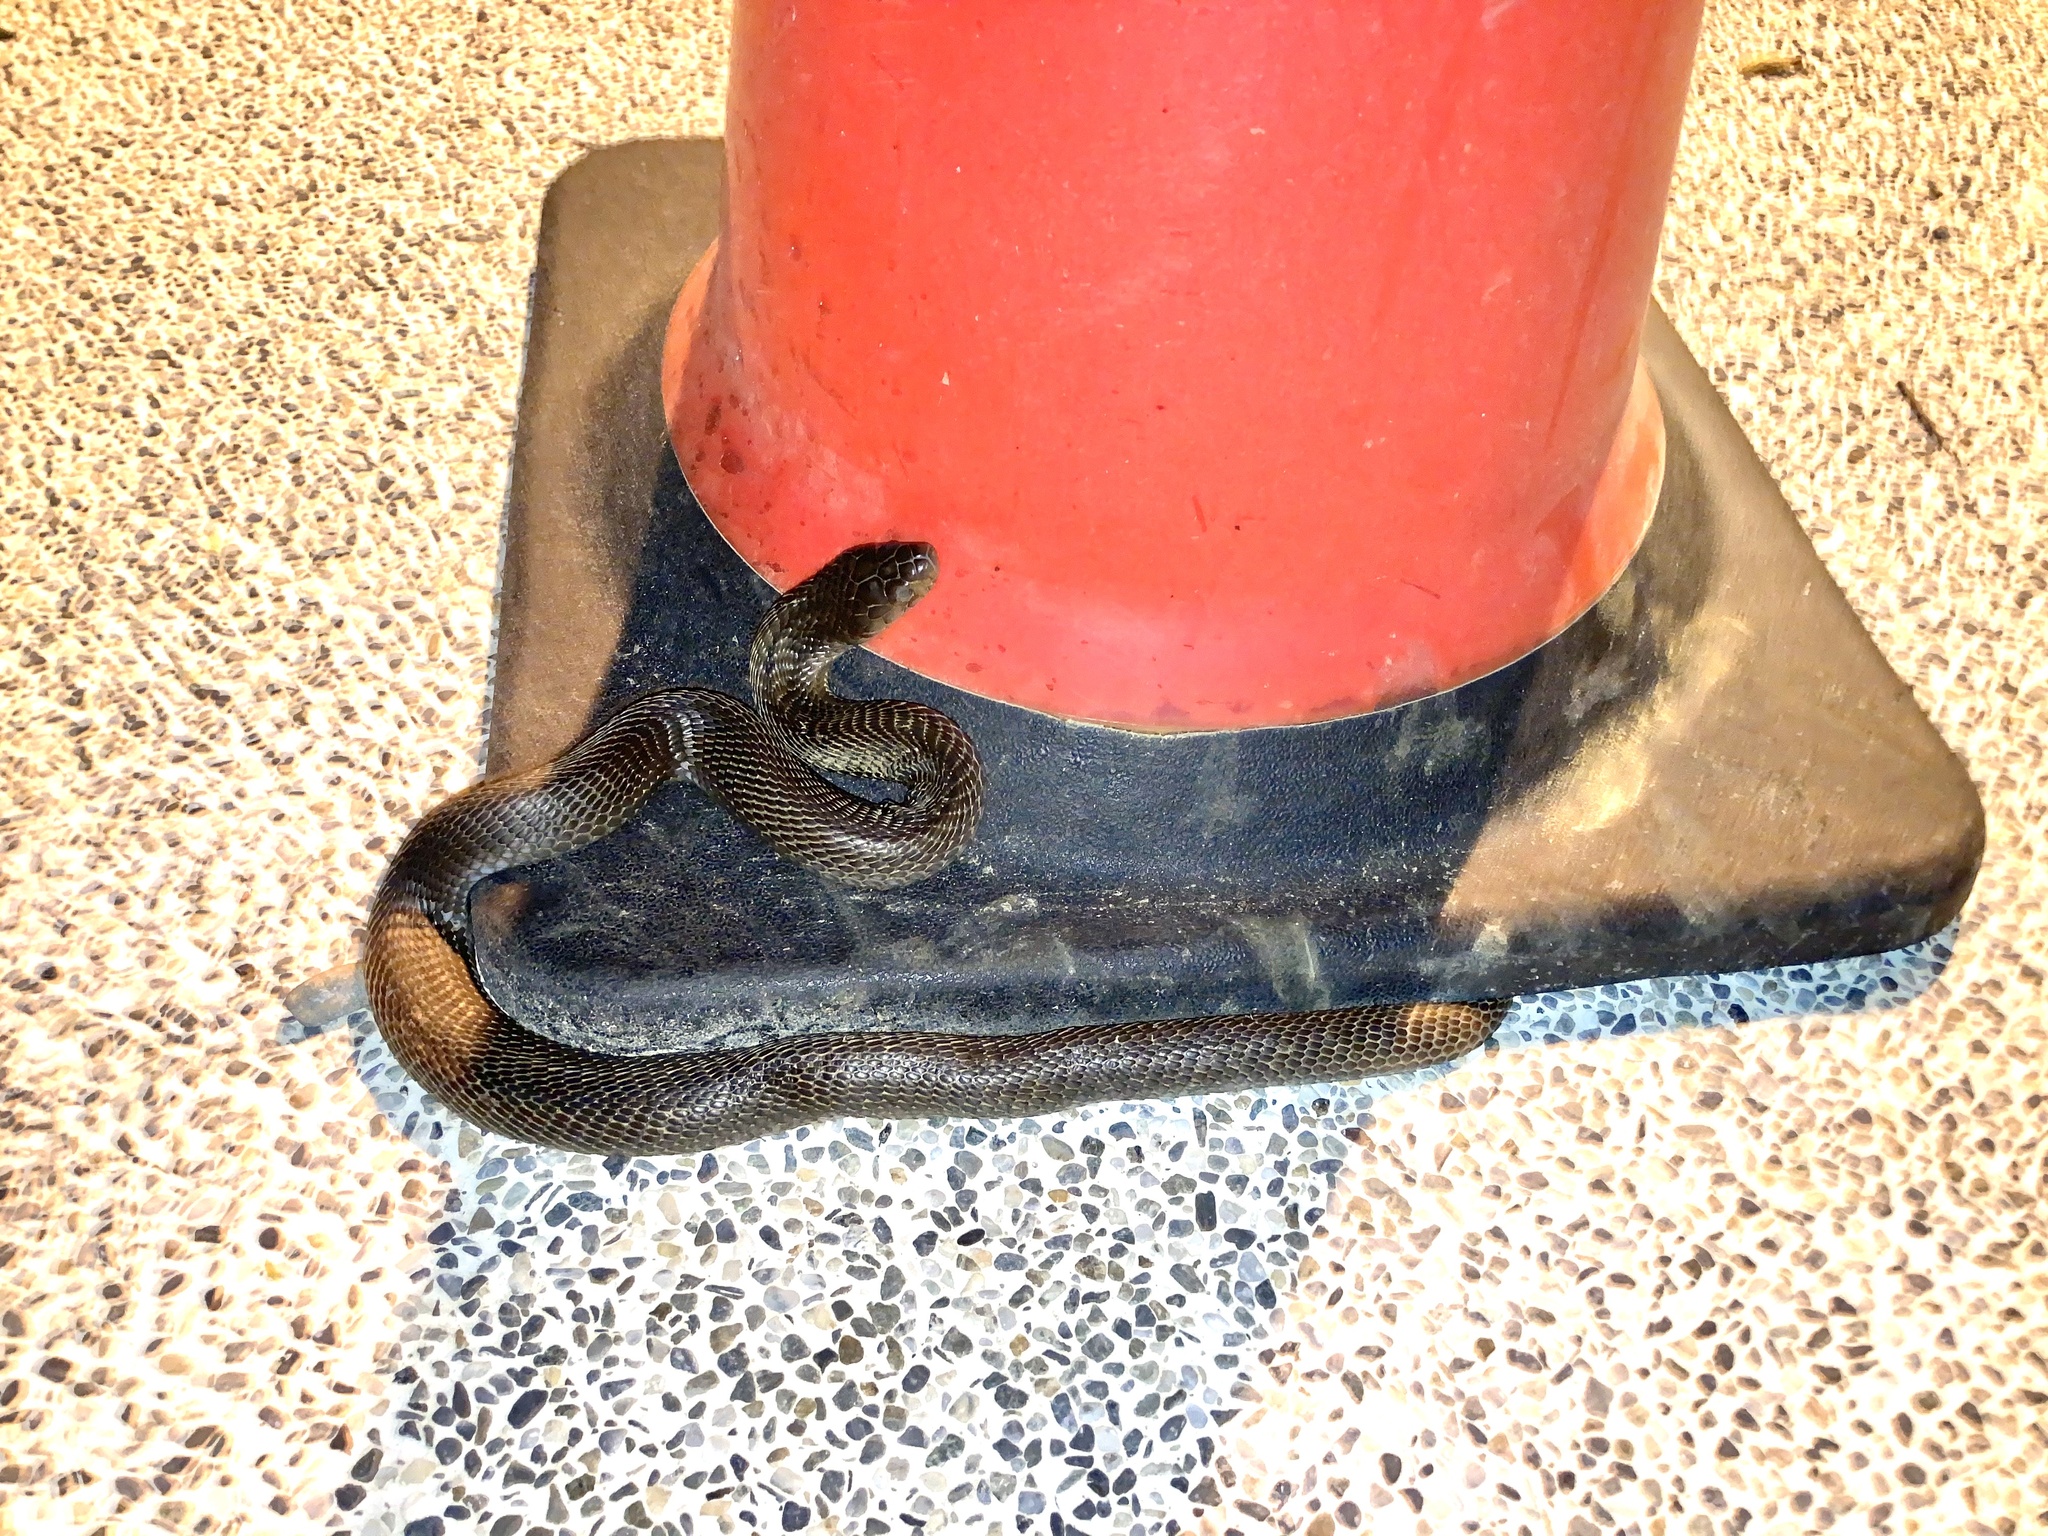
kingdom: Animalia
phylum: Chordata
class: Squamata
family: Elapidae
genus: Naja
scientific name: Naja atra
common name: Chinese cobra
